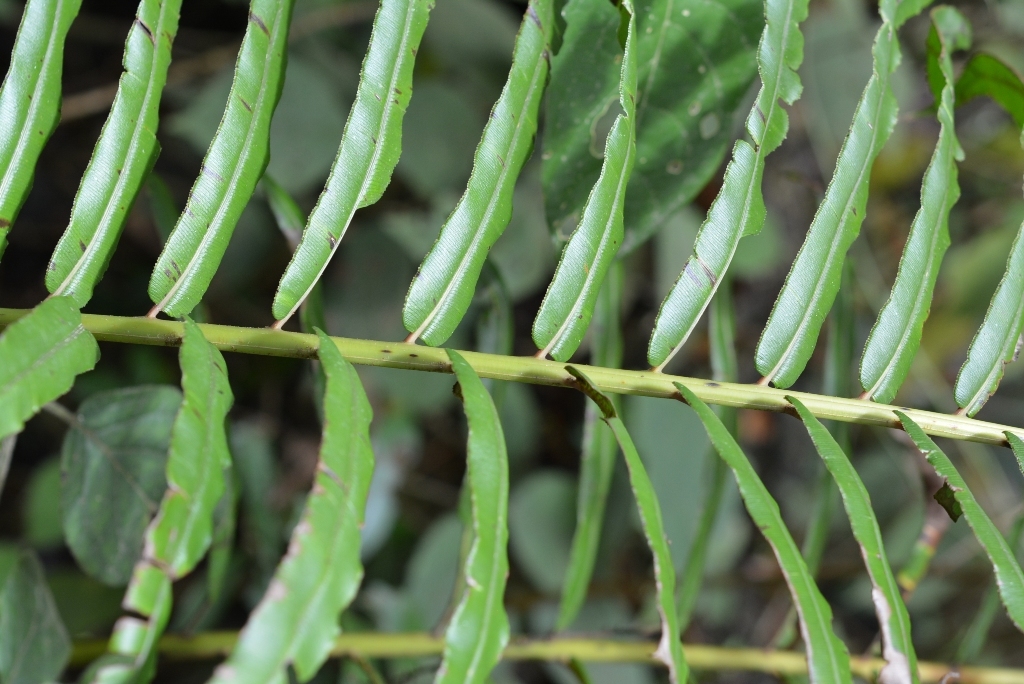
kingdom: Plantae
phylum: Tracheophyta
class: Polypodiopsida
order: Polypodiales
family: Blechnaceae
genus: Parablechnum
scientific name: Parablechnum falciforme
